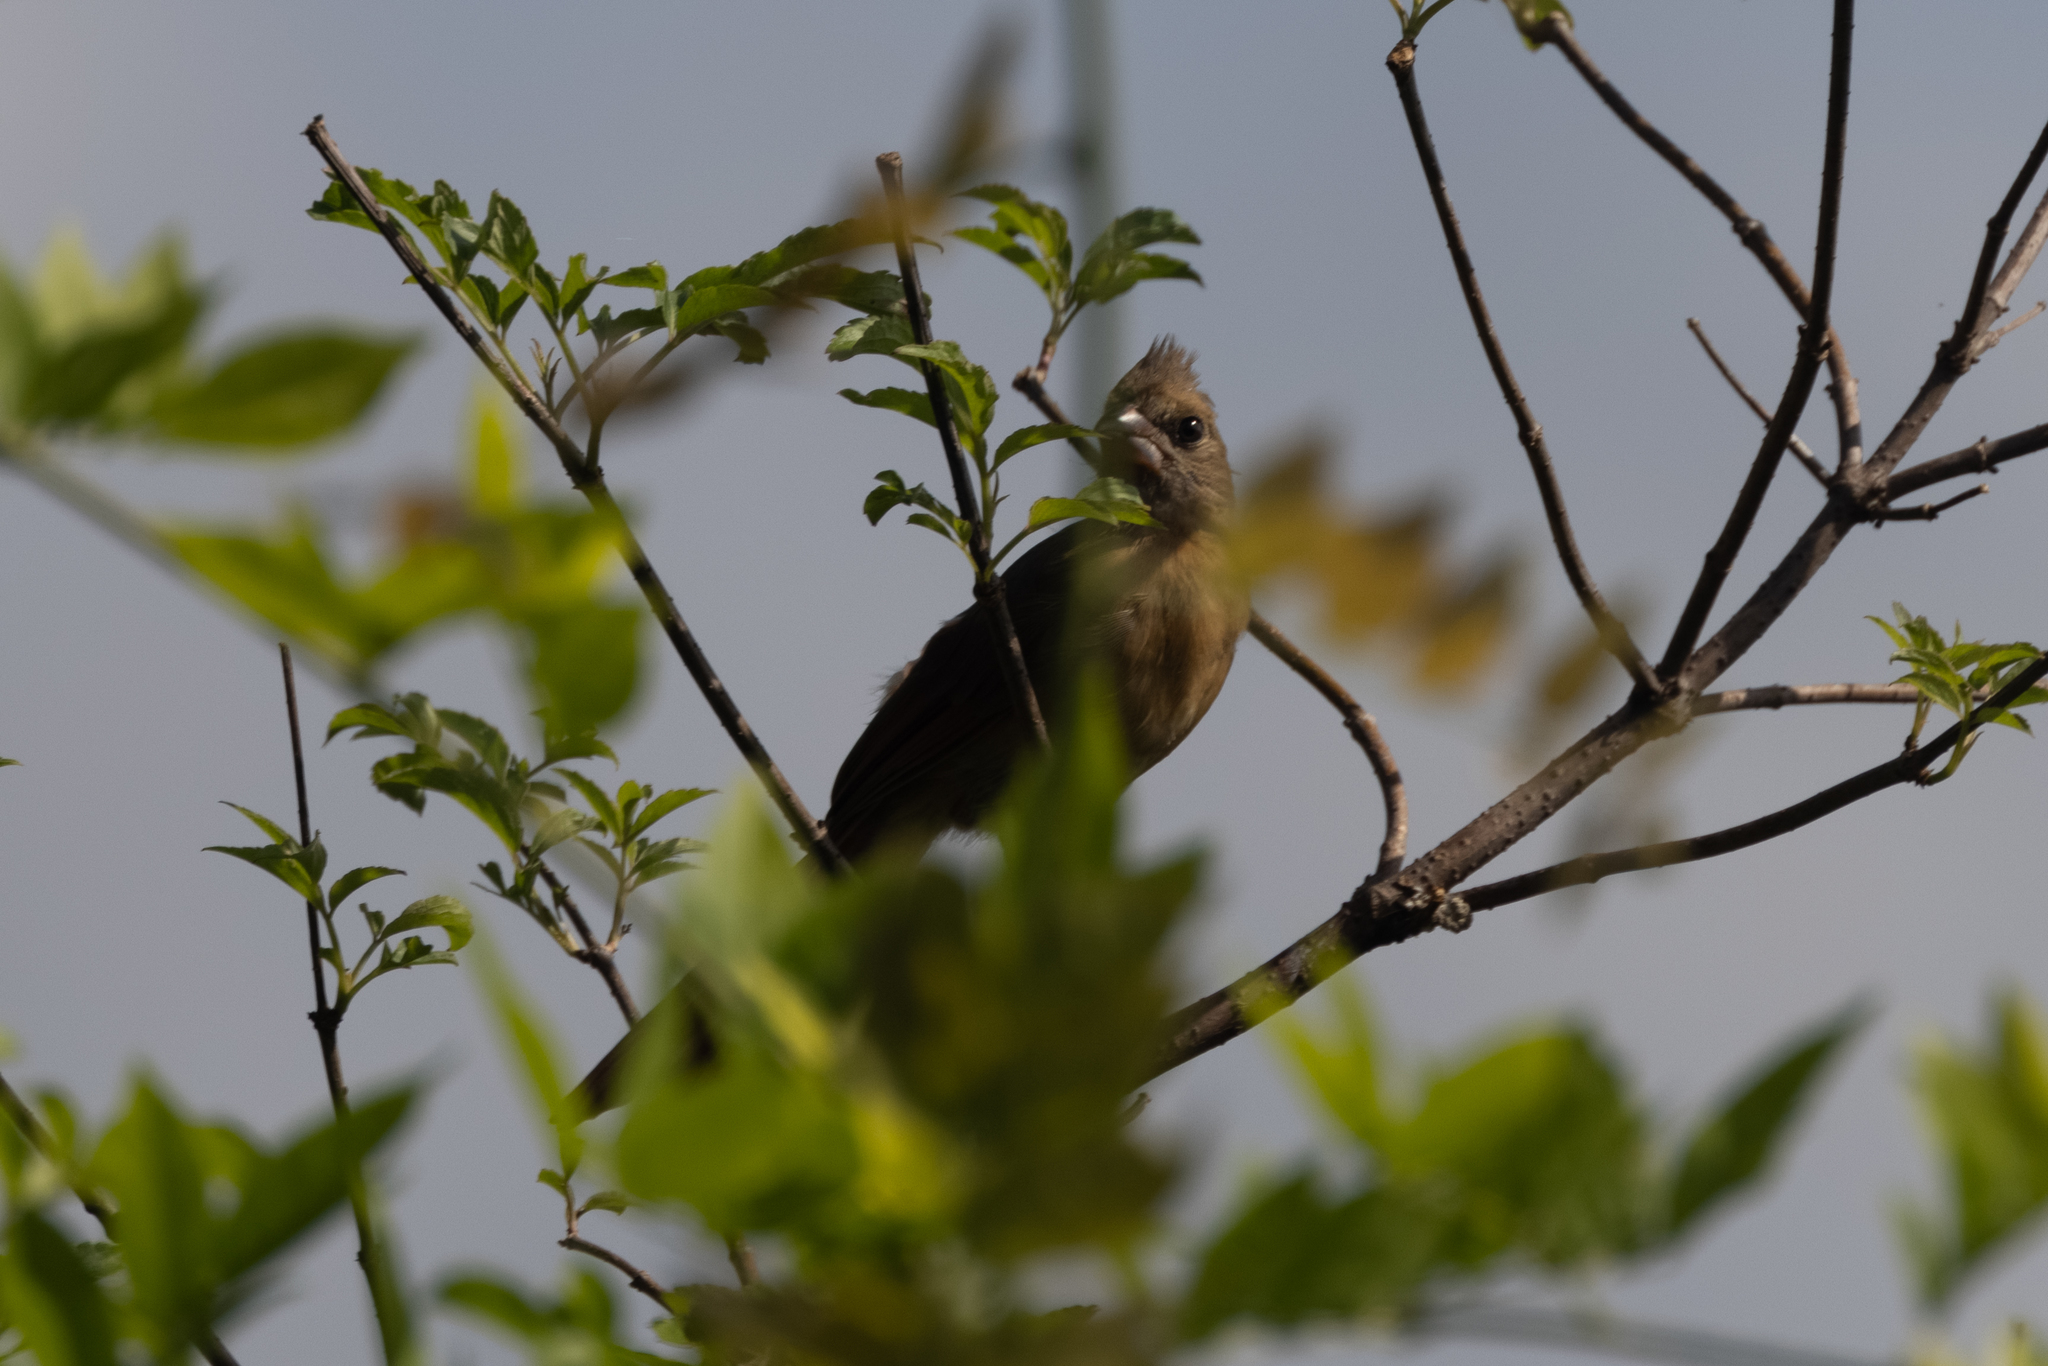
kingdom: Animalia
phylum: Chordata
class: Aves
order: Passeriformes
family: Cardinalidae
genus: Cardinalis
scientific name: Cardinalis cardinalis
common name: Northern cardinal
